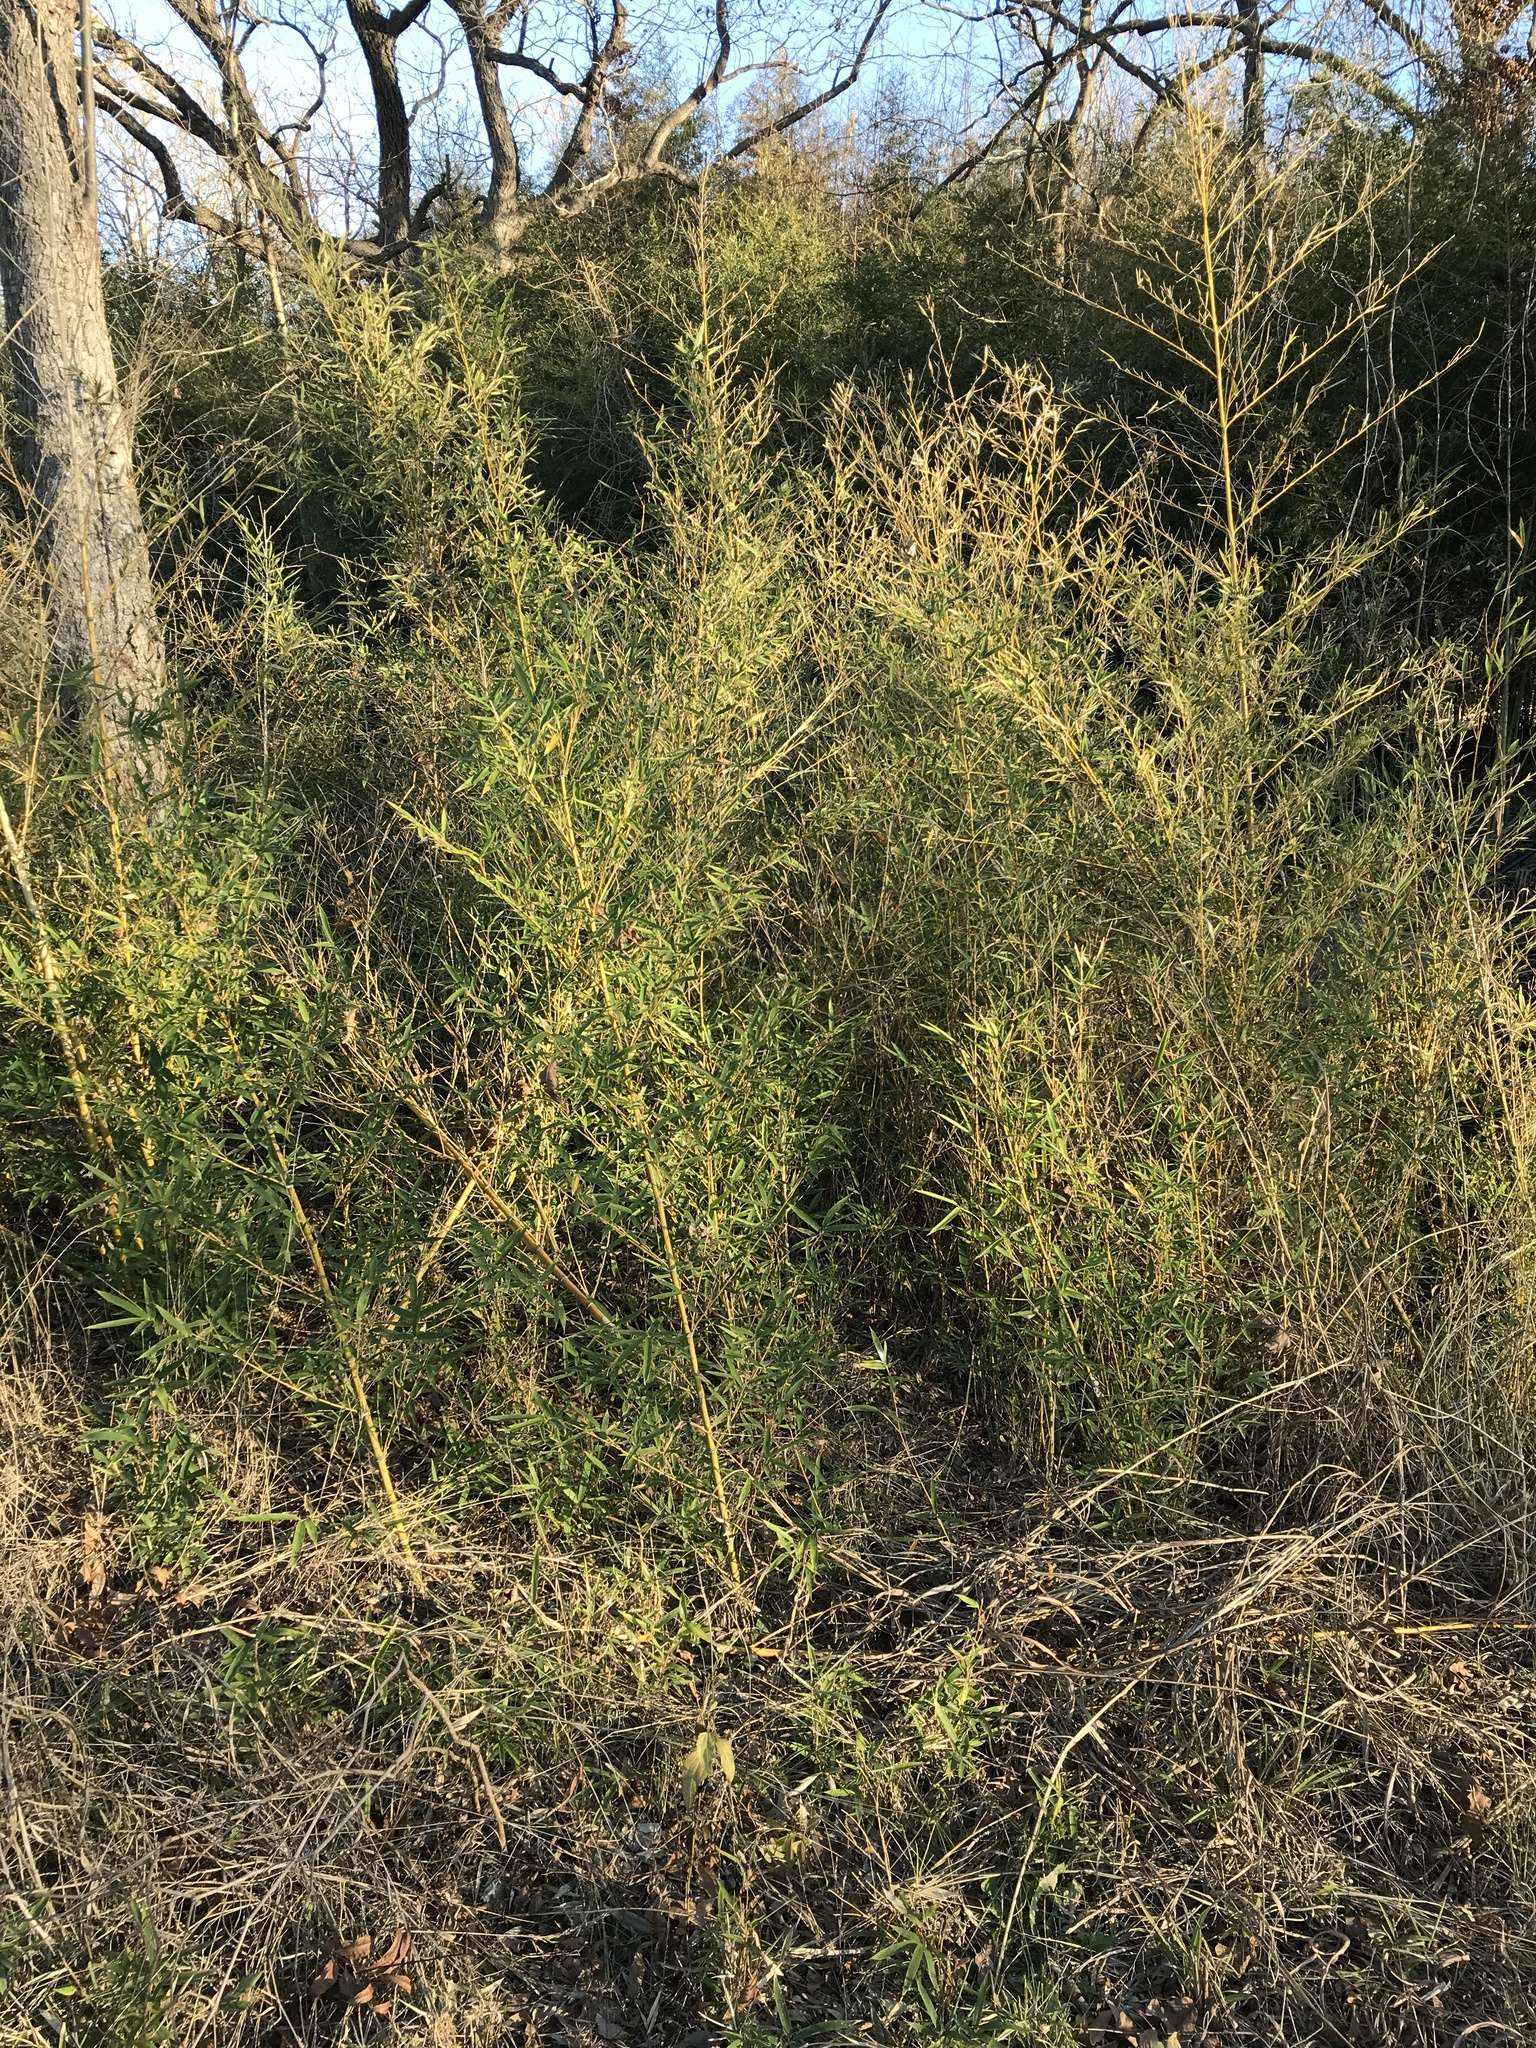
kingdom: Plantae
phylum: Tracheophyta
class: Liliopsida
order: Poales
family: Poaceae
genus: Phyllostachys
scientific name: Phyllostachys aurea
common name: Golden bamboo
